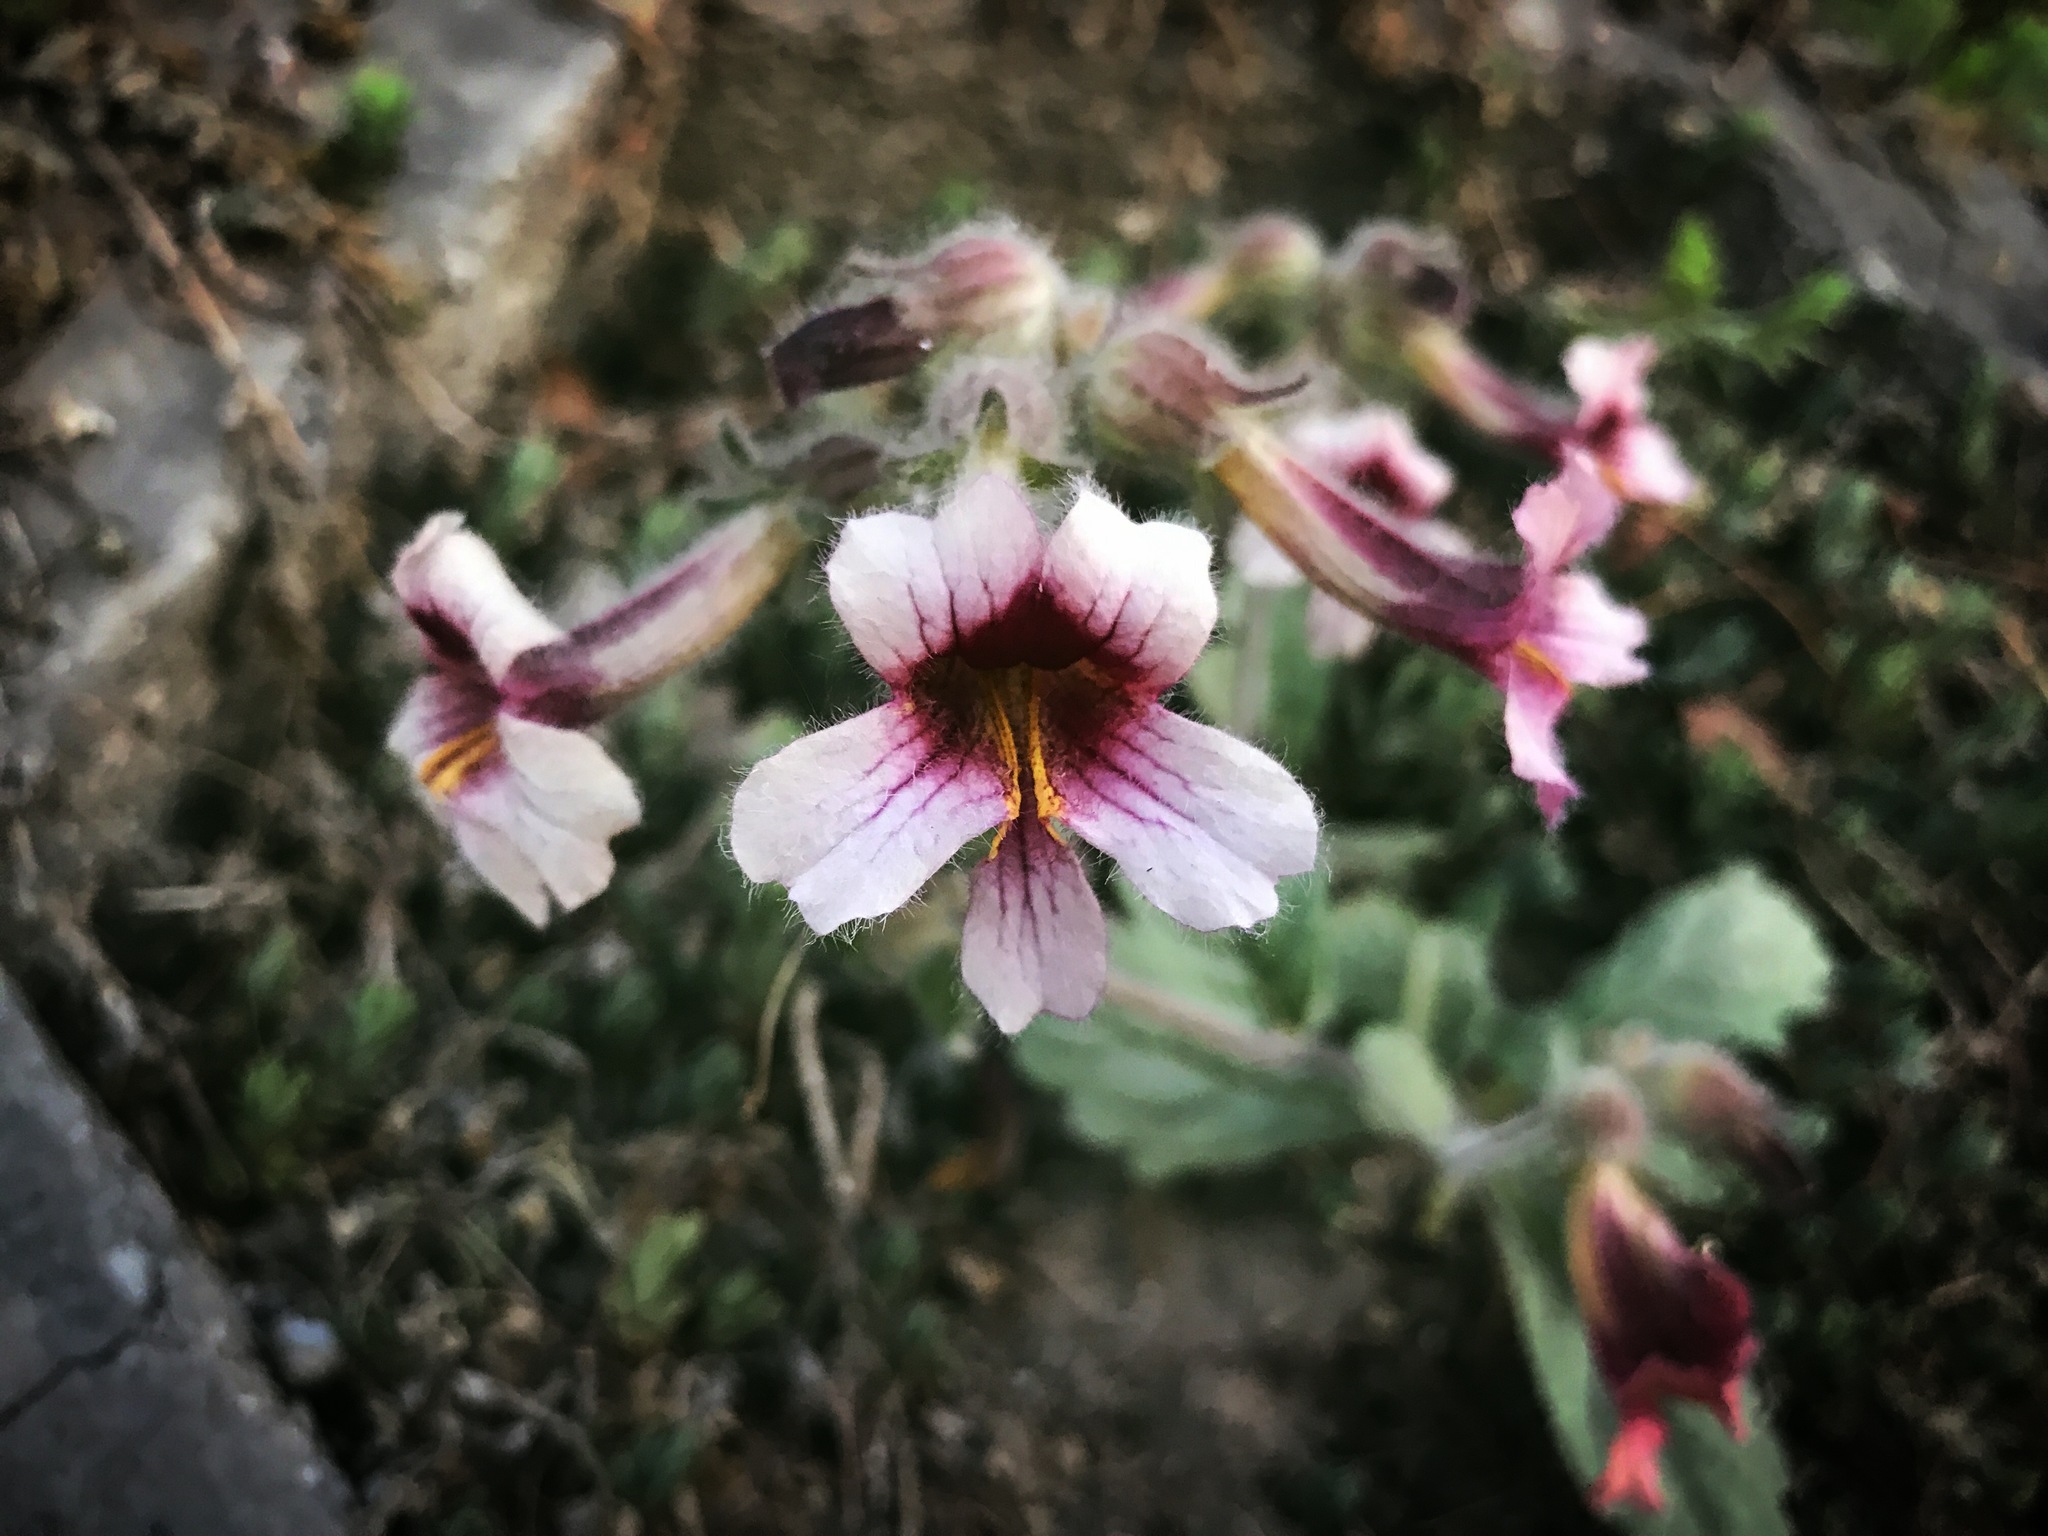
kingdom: Plantae
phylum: Tracheophyta
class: Magnoliopsida
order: Lamiales
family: Rehmanniaceae
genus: Rehmannia
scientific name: Rehmannia glutinosa
